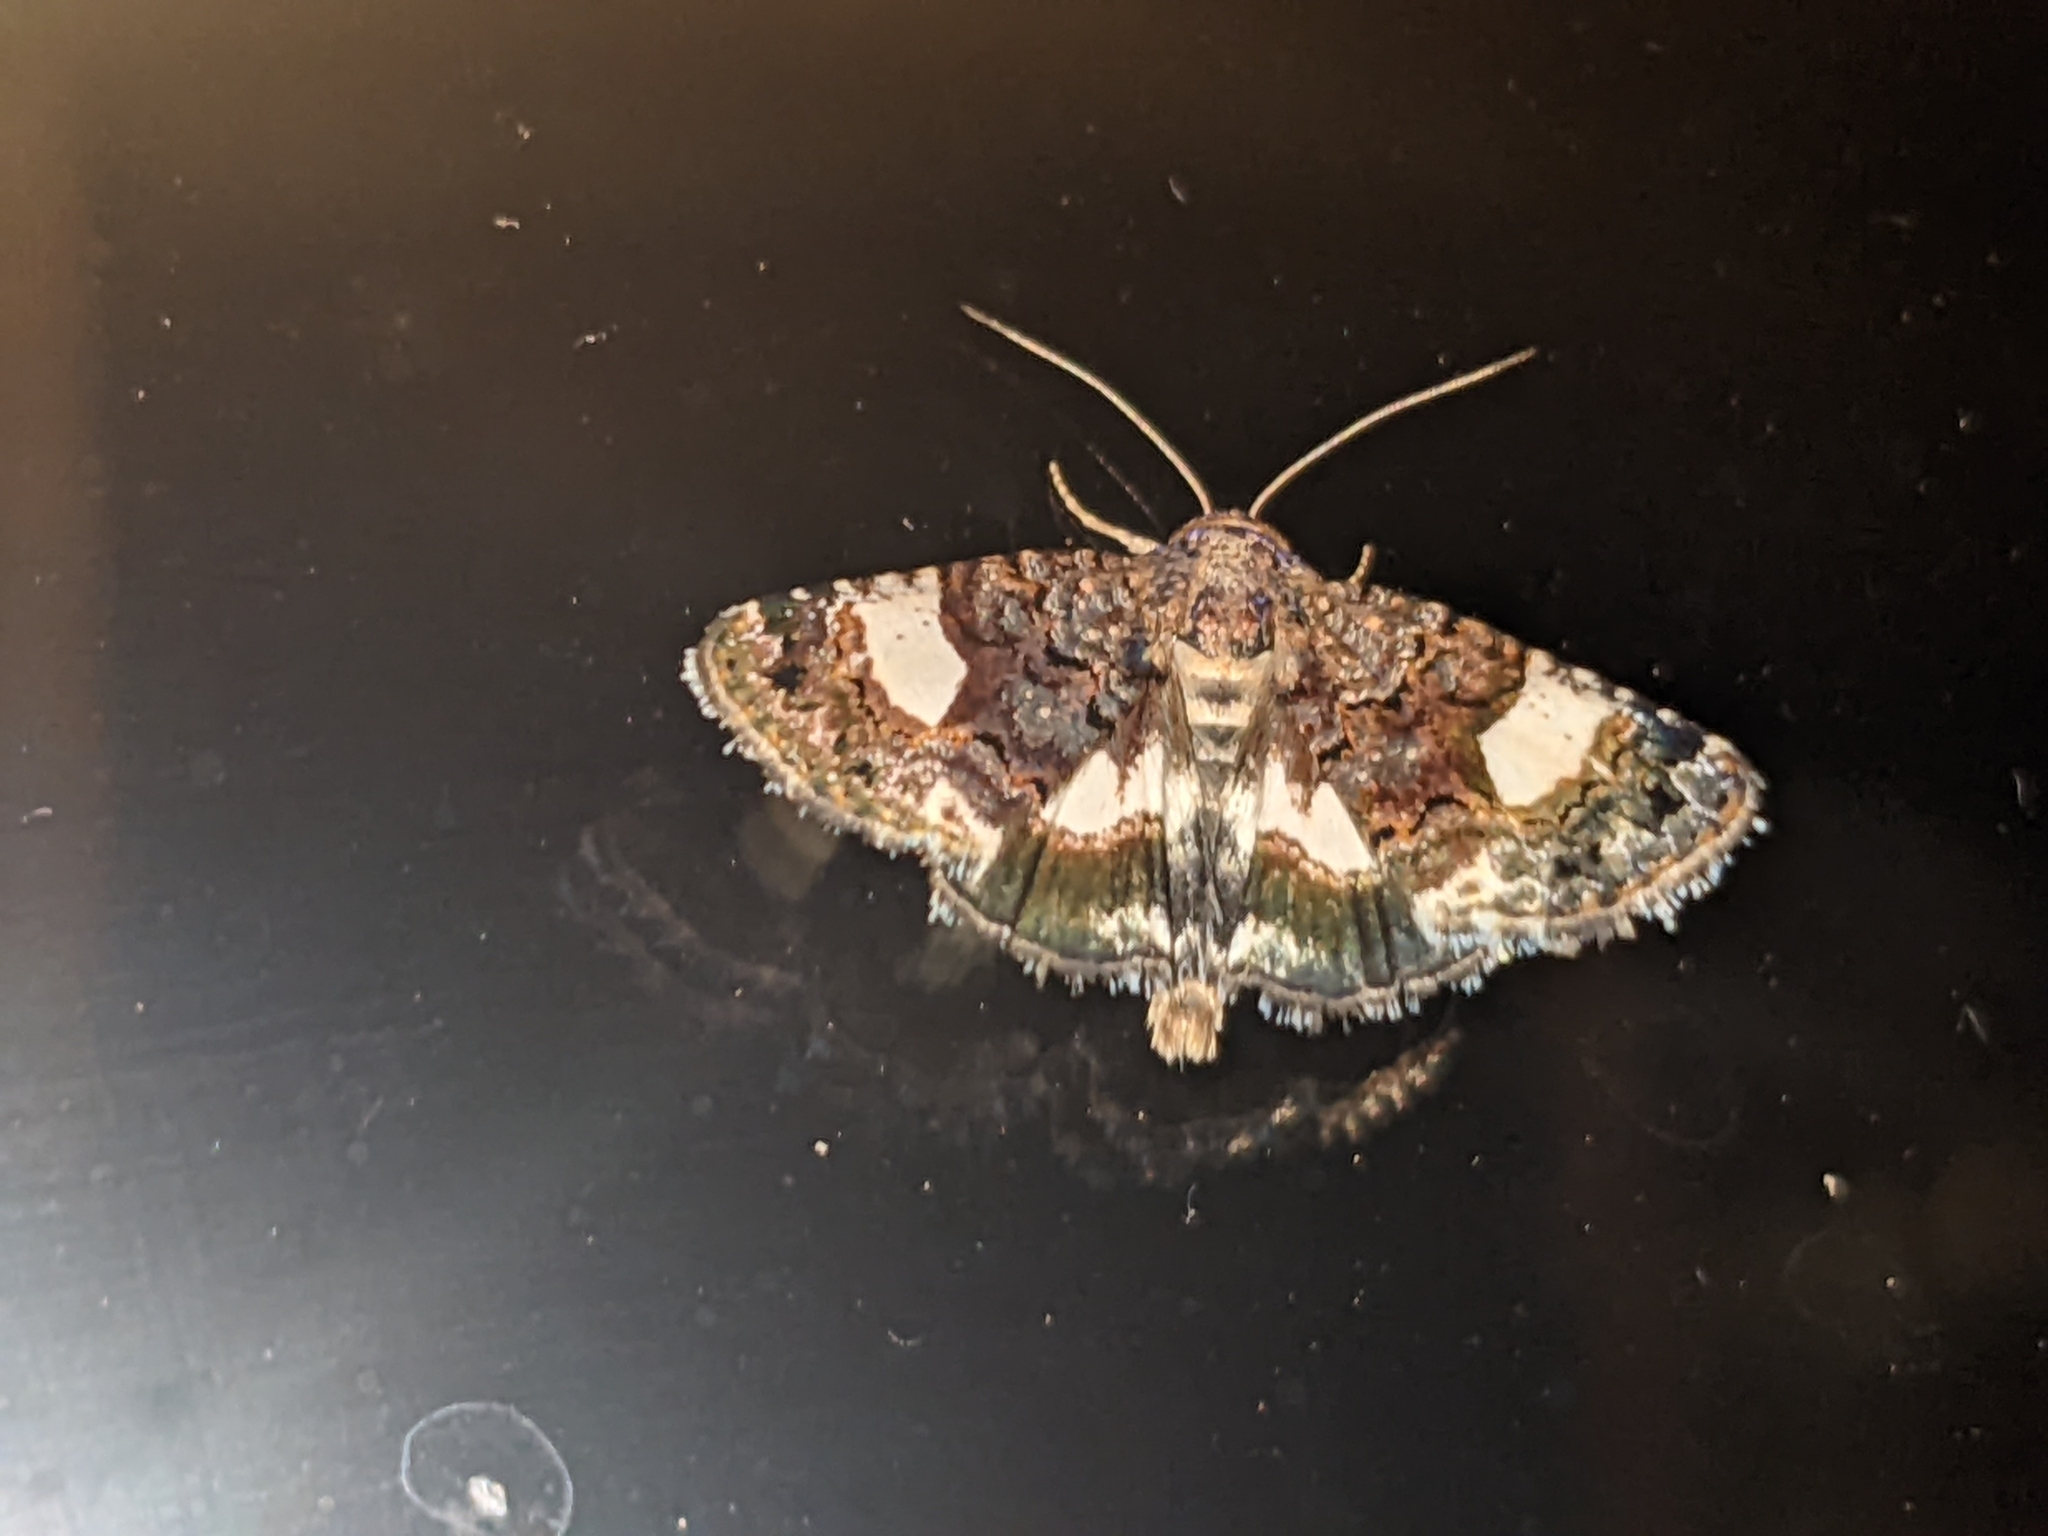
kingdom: Animalia
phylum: Arthropoda
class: Insecta
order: Lepidoptera
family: Erebidae
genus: Tyta
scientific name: Tyta luctuosa
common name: Four-spotted
